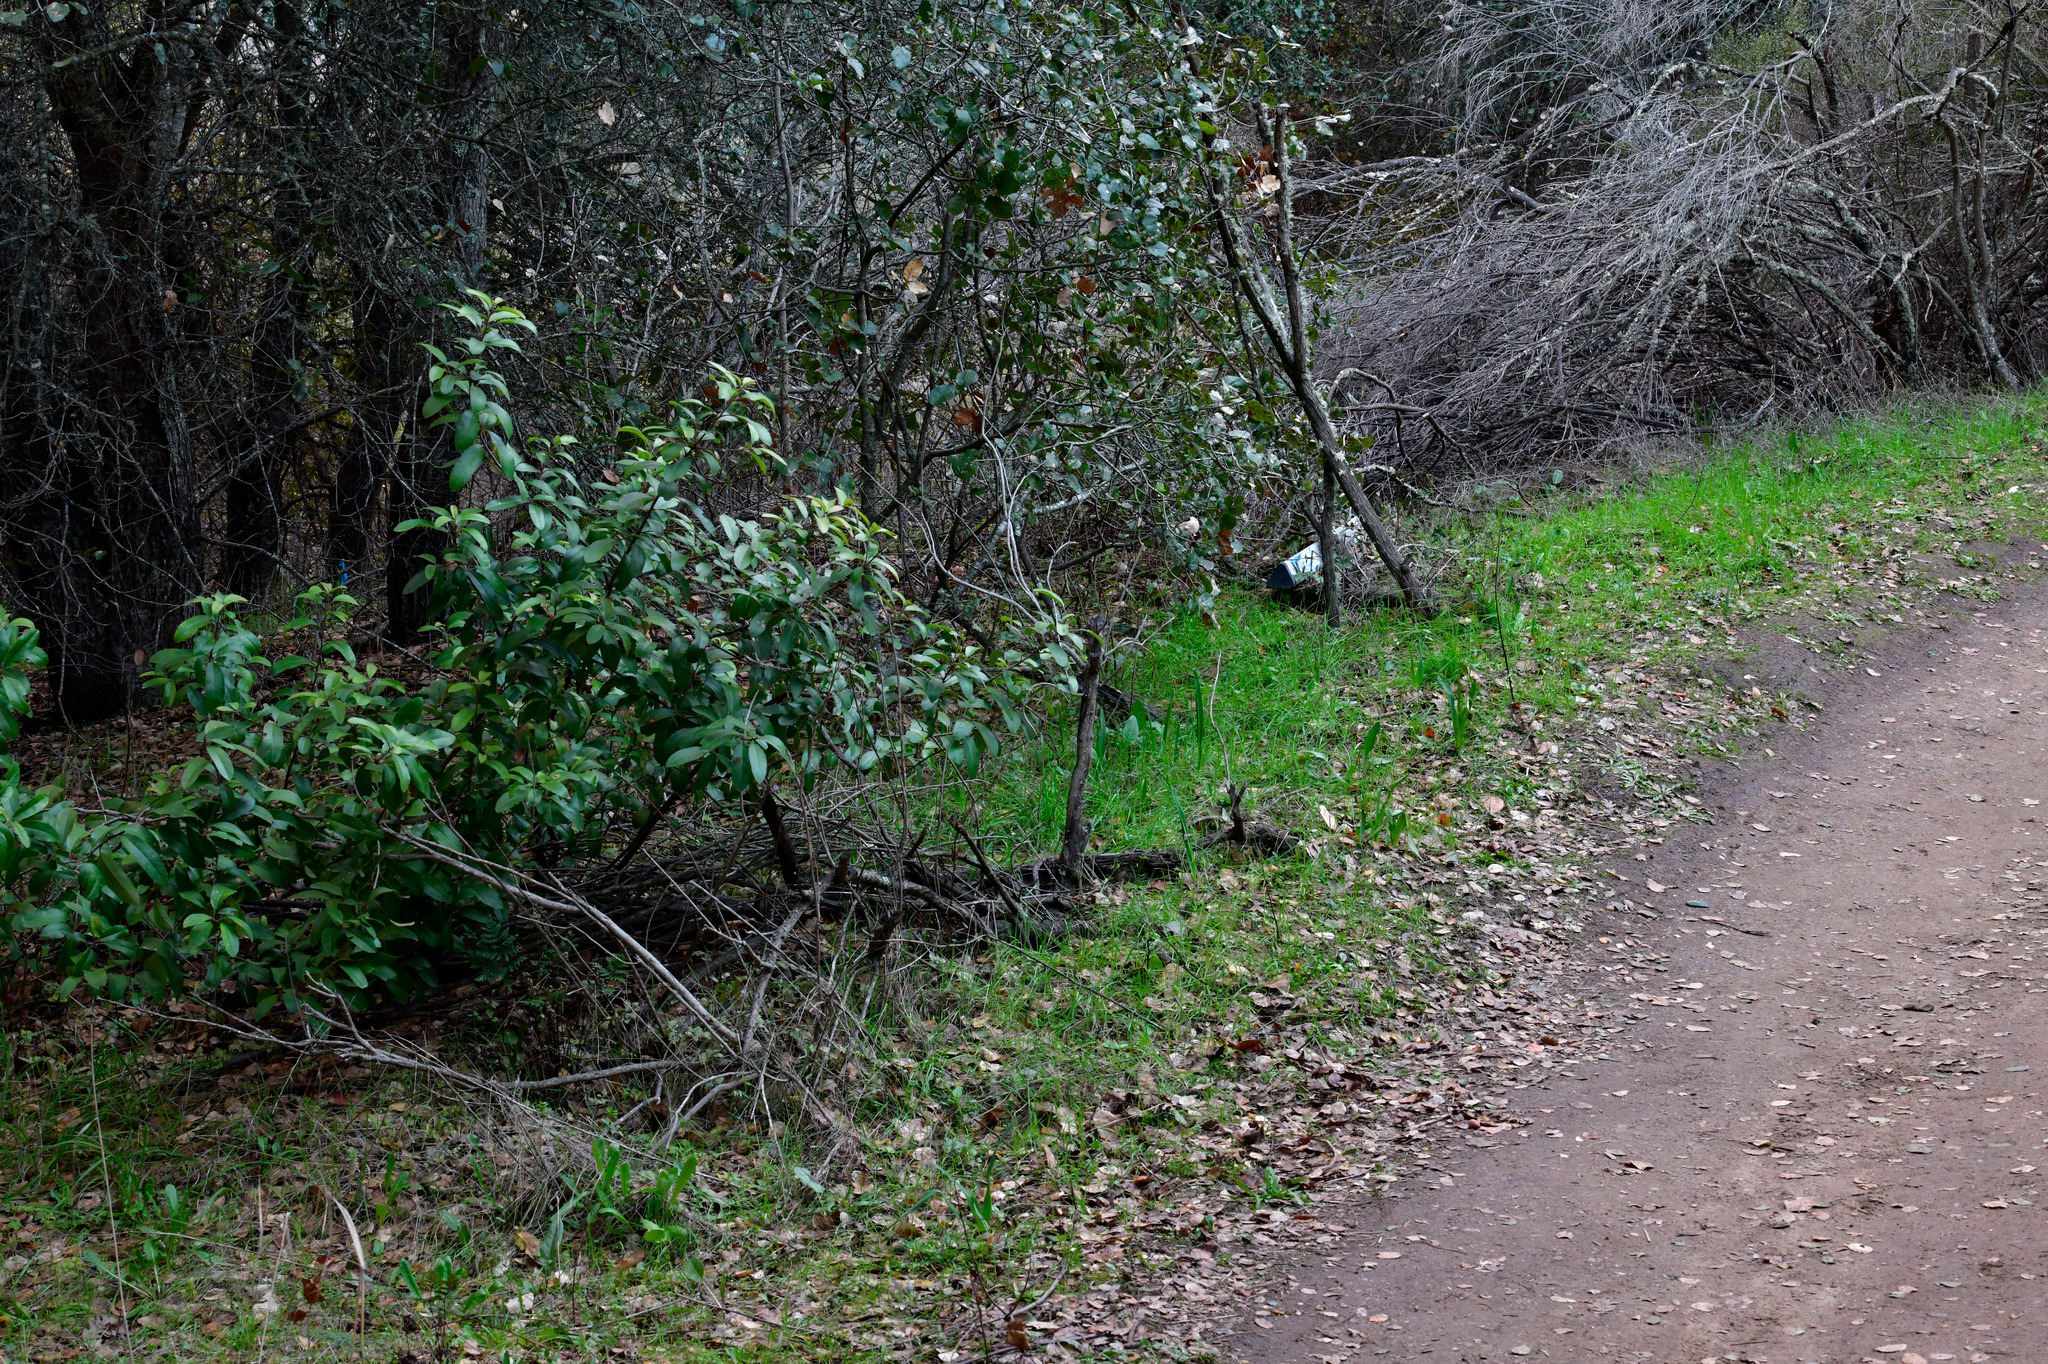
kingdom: Plantae
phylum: Tracheophyta
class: Magnoliopsida
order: Rosales
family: Rosaceae
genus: Heteromeles
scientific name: Heteromeles arbutifolia
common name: California-holly
